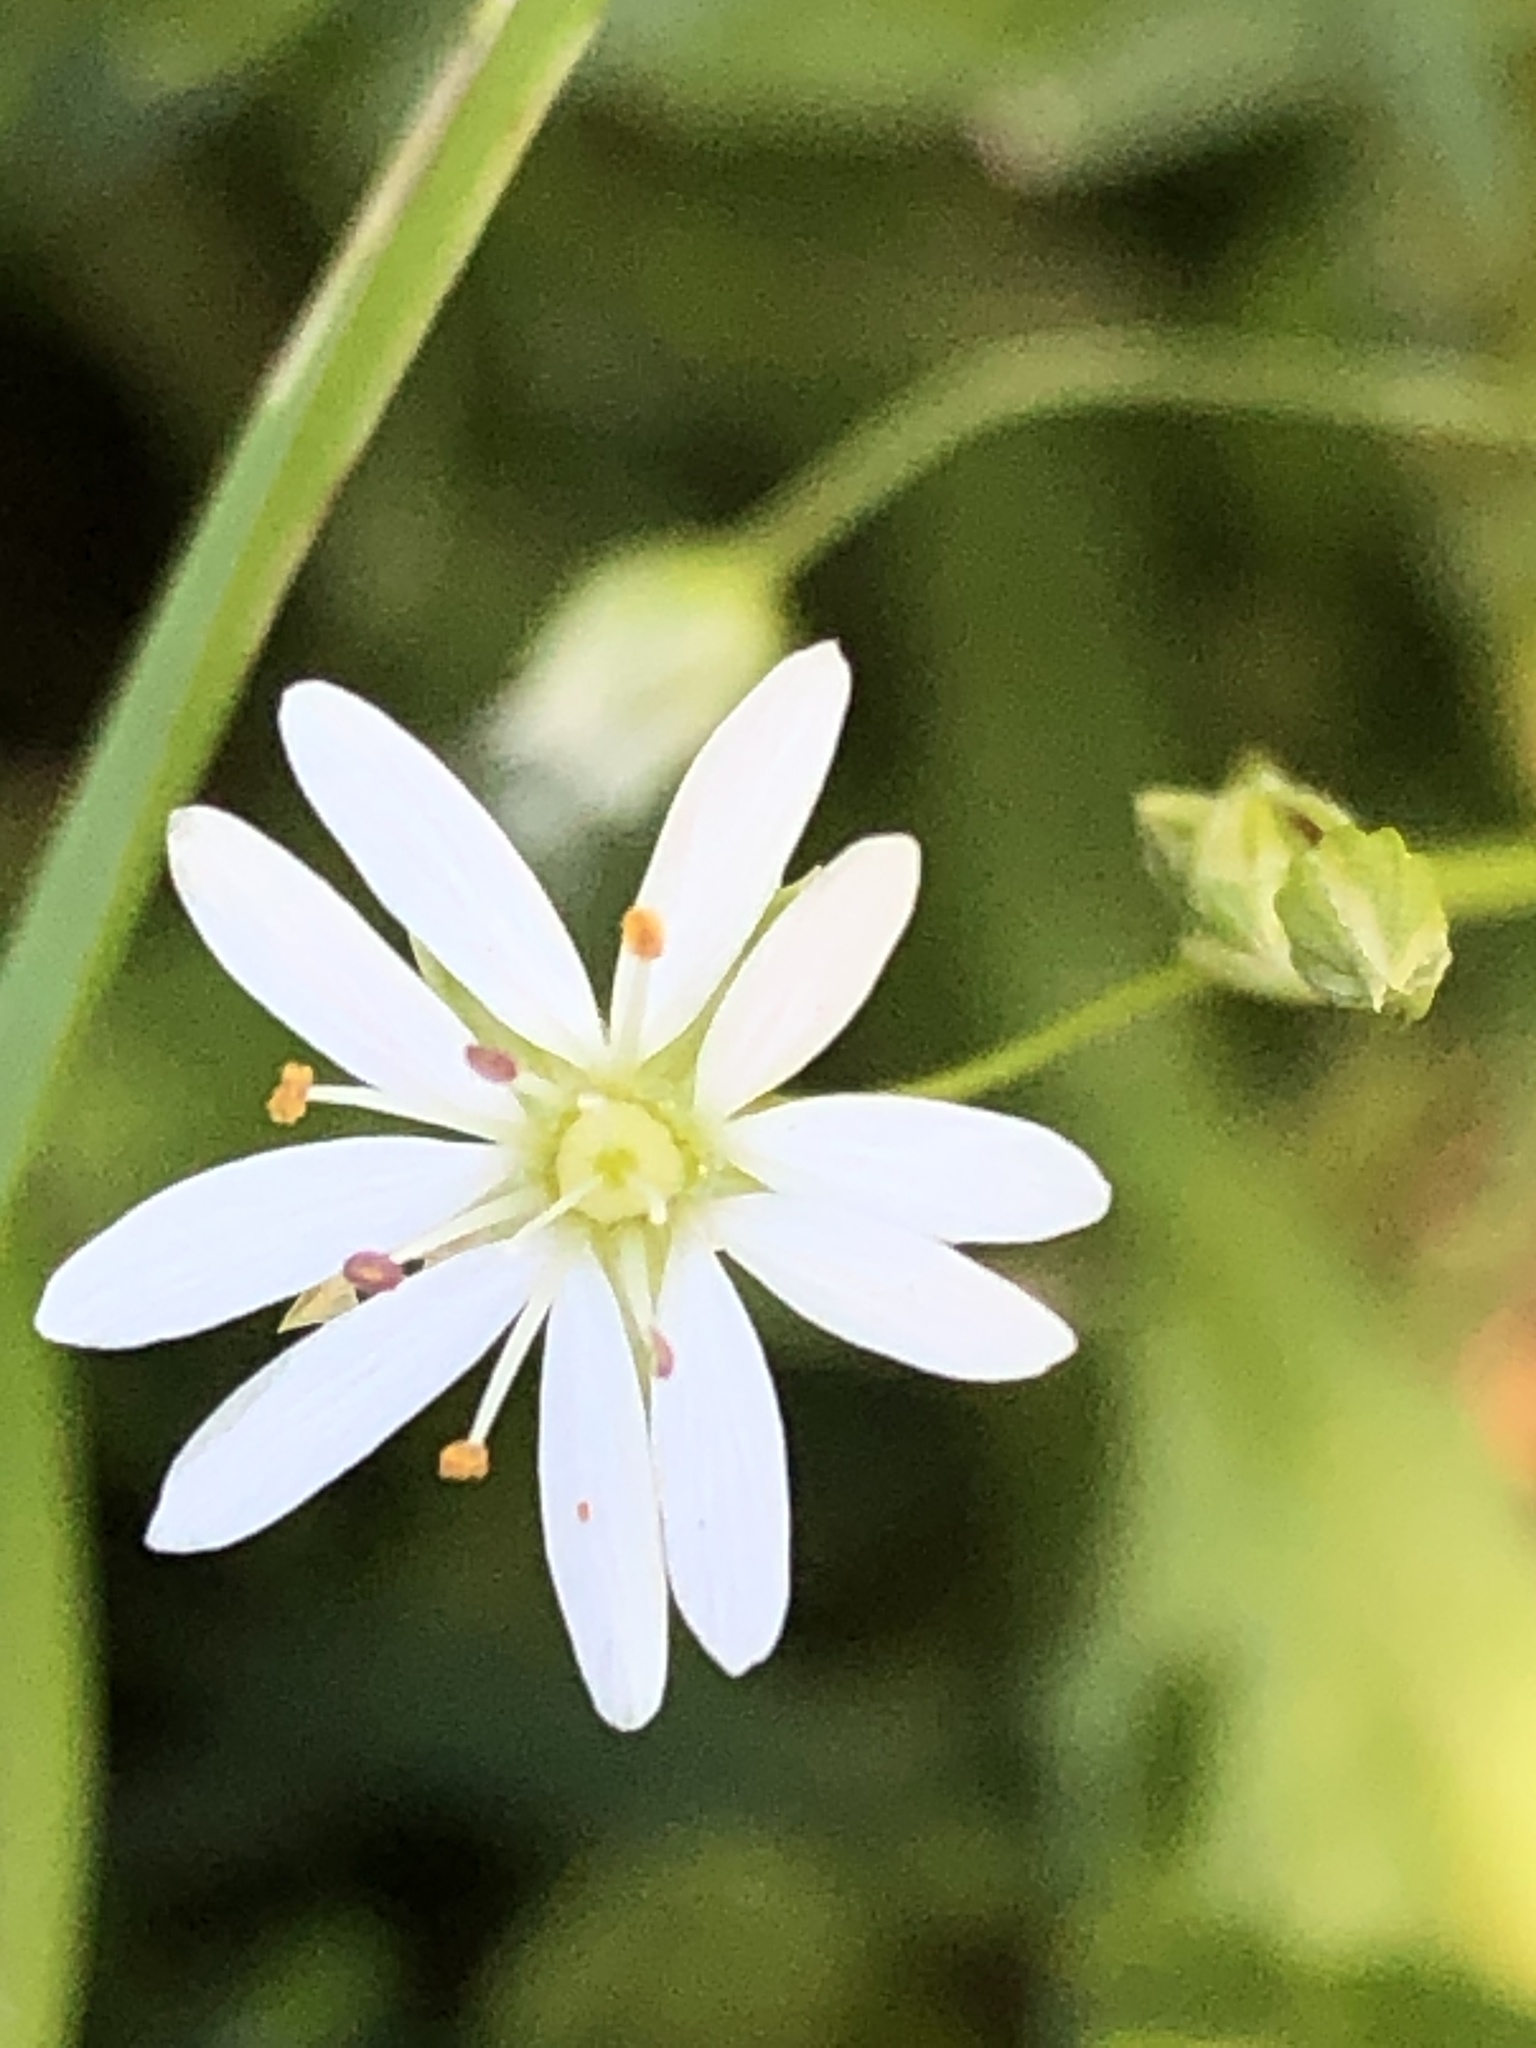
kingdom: Plantae
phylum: Tracheophyta
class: Magnoliopsida
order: Caryophyllales
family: Caryophyllaceae
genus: Stellaria
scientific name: Stellaria graminea
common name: Grass-like starwort
